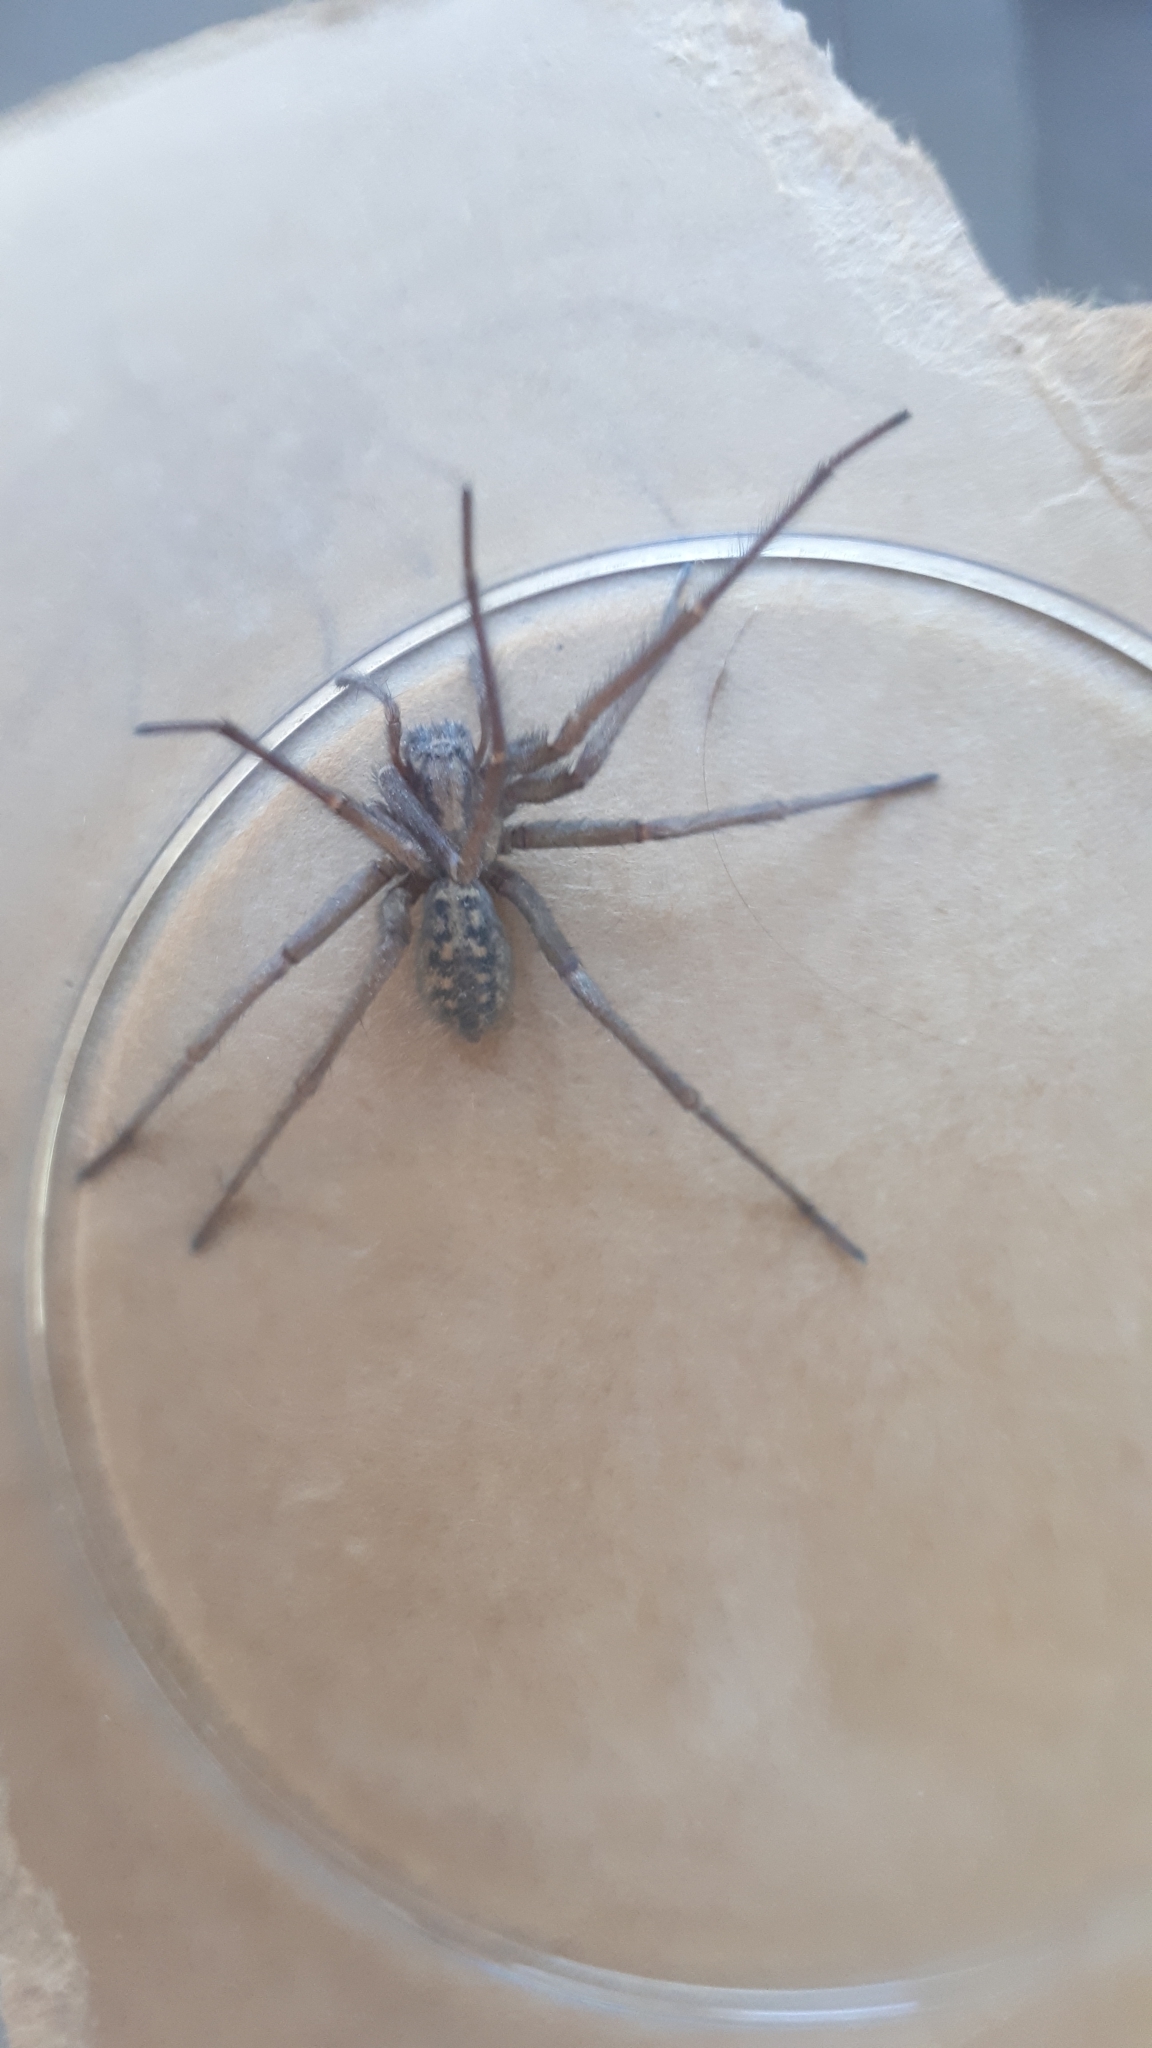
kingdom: Animalia
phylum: Arthropoda
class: Arachnida
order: Araneae
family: Agelenidae
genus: Eratigena
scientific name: Eratigena duellica
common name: Giant house spider
